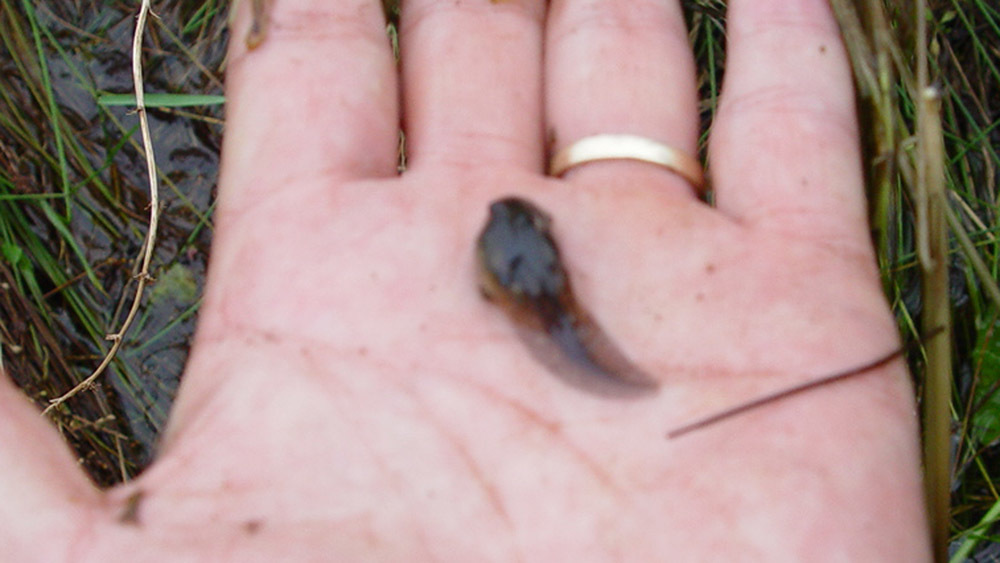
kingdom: Animalia
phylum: Chordata
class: Amphibia
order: Anura
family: Ranidae
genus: Rana
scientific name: Rana uenoi
